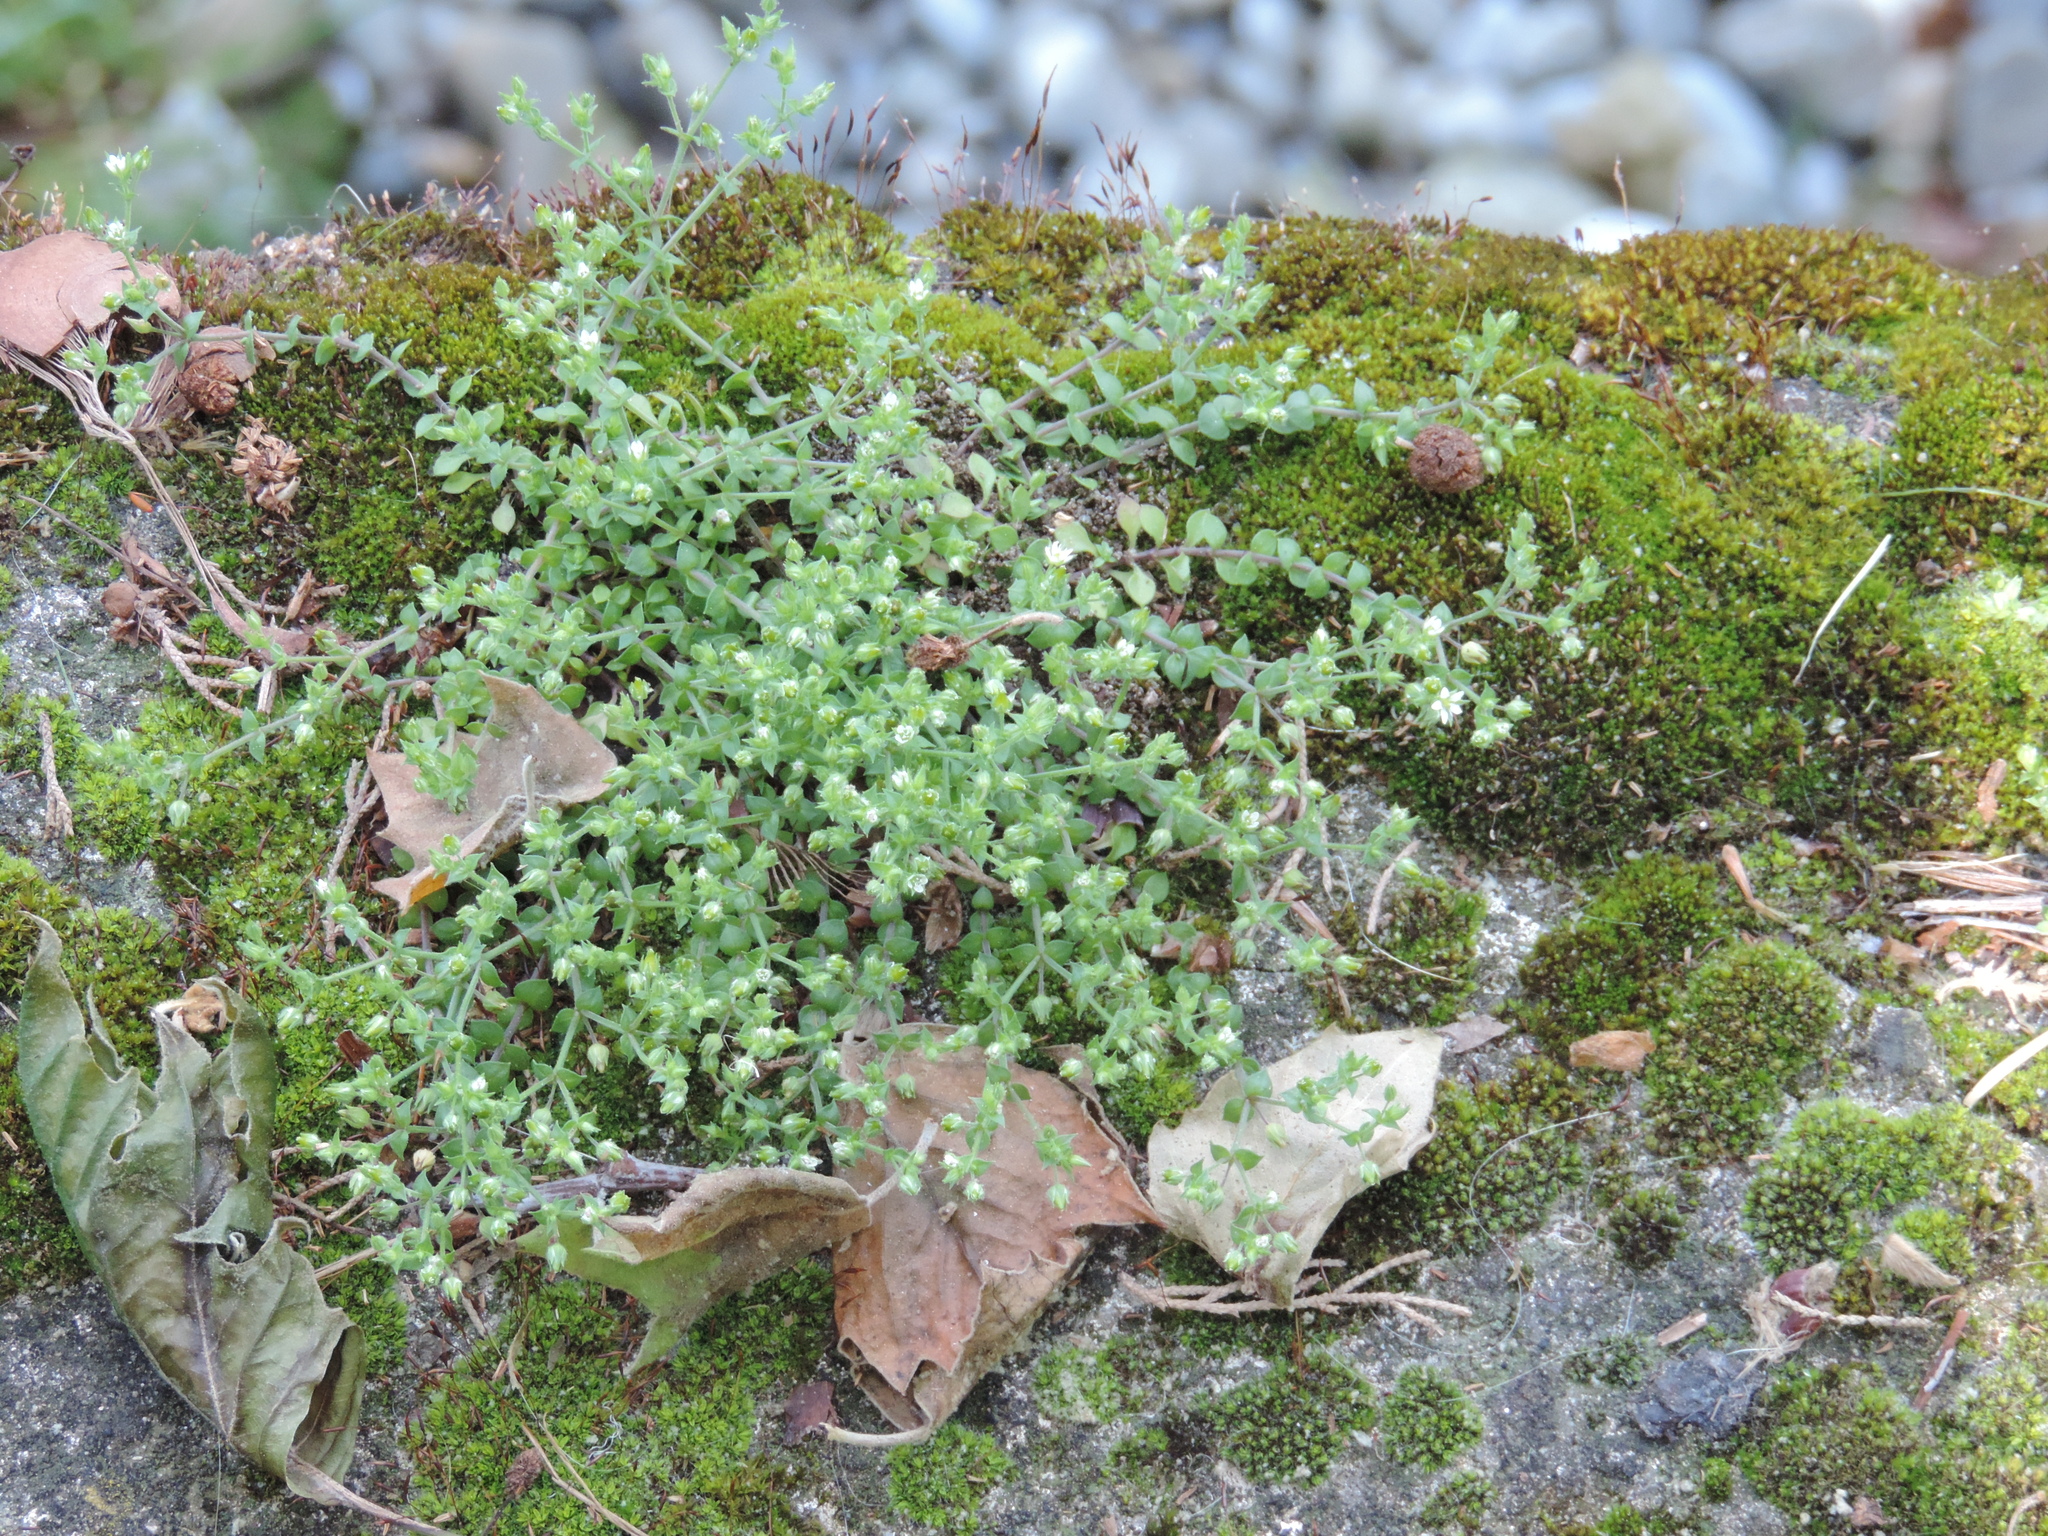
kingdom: Plantae
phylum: Tracheophyta
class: Magnoliopsida
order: Caryophyllales
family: Caryophyllaceae
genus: Arenaria
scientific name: Arenaria serpyllifolia
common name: Thyme-leaved sandwort
